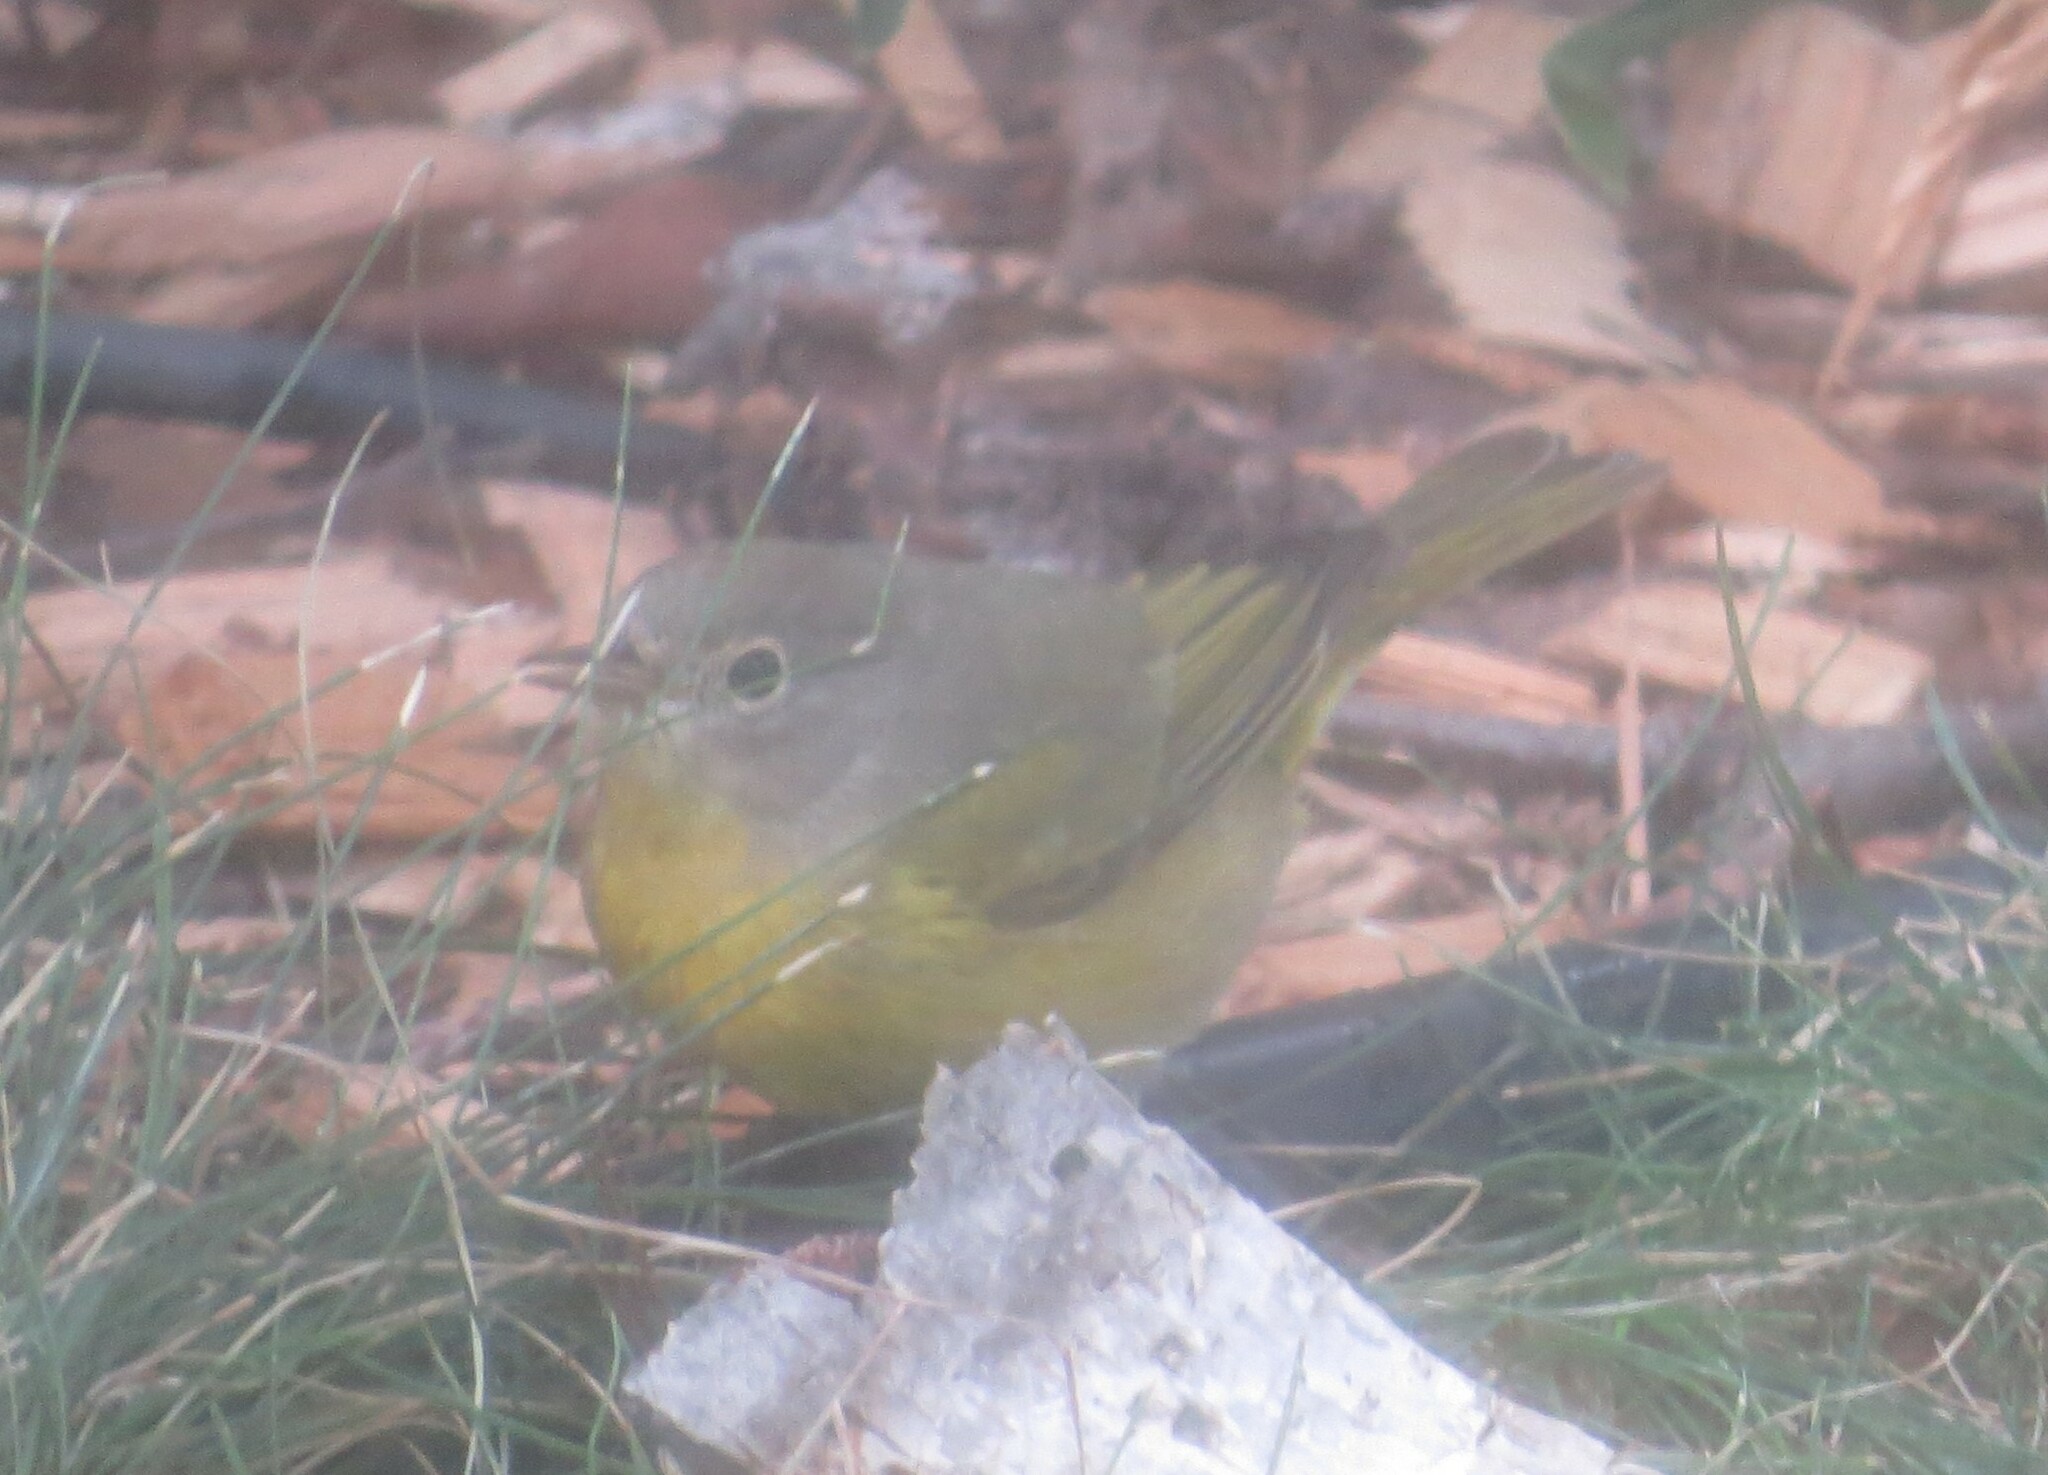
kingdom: Animalia
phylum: Chordata
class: Aves
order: Passeriformes
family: Parulidae
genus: Leiothlypis
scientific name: Leiothlypis ruficapilla
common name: Nashville warbler
